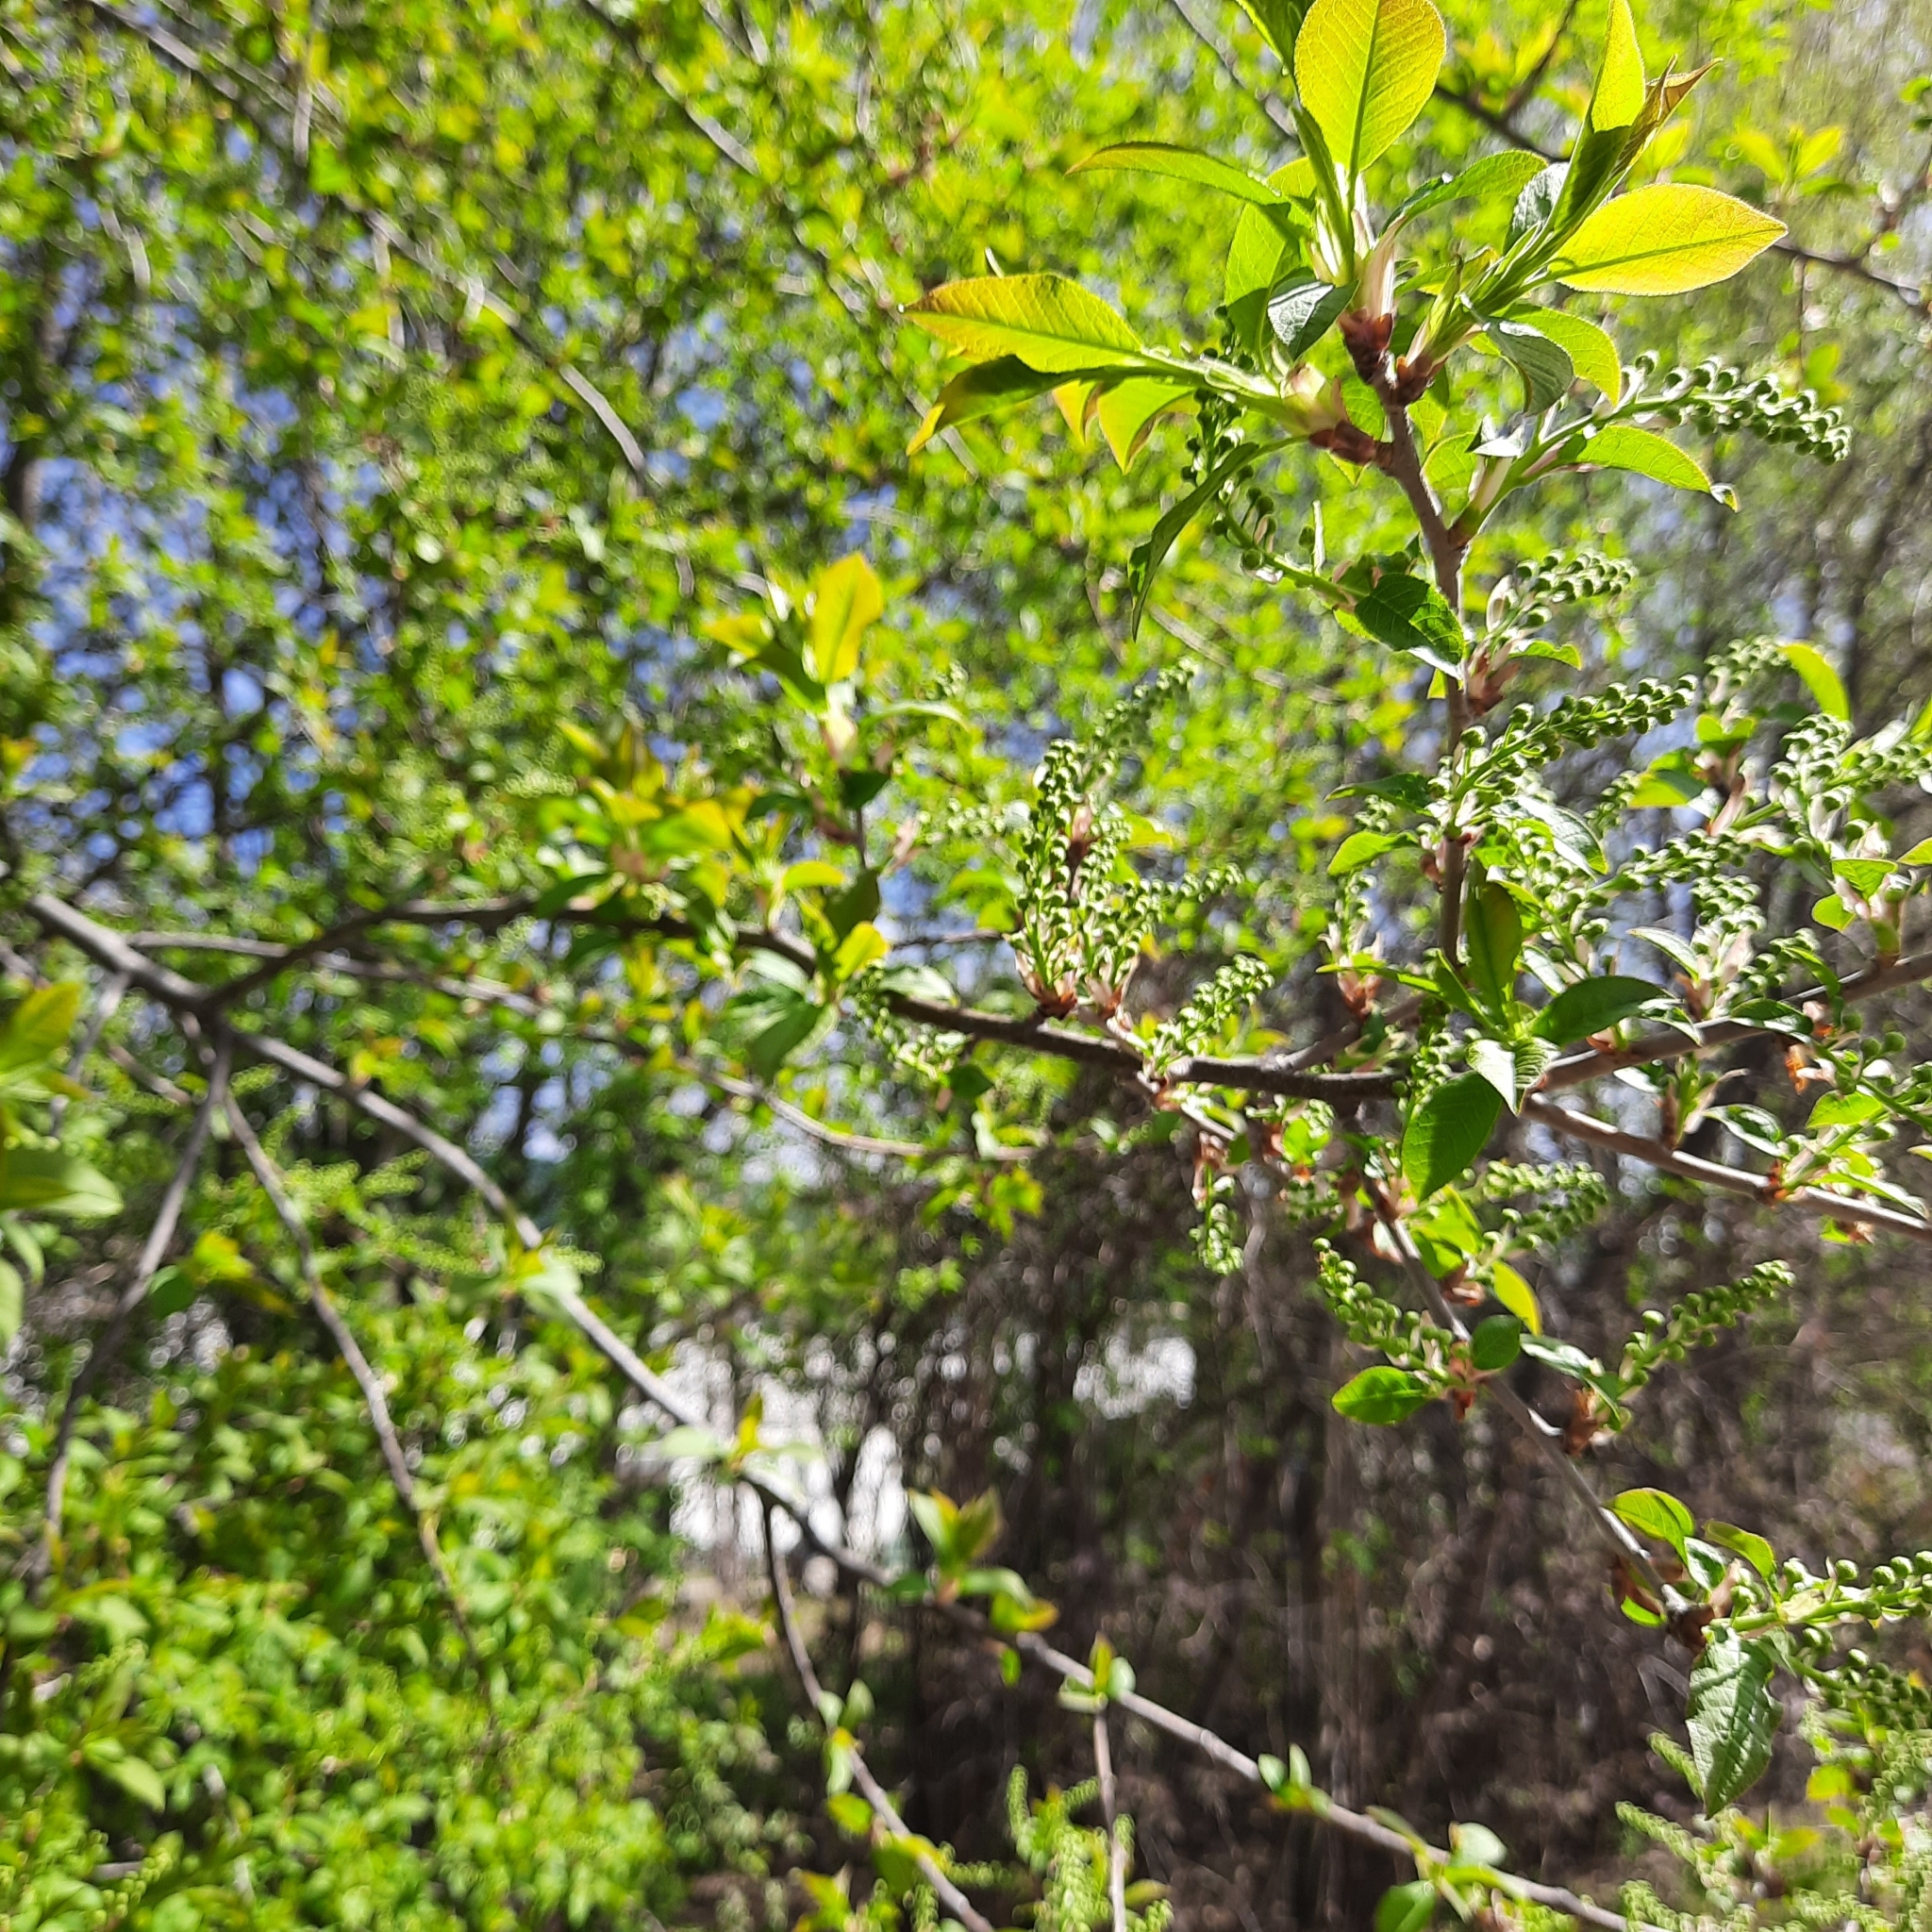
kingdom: Plantae
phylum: Tracheophyta
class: Magnoliopsida
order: Rosales
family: Rosaceae
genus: Prunus
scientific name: Prunus padus
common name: Bird cherry
